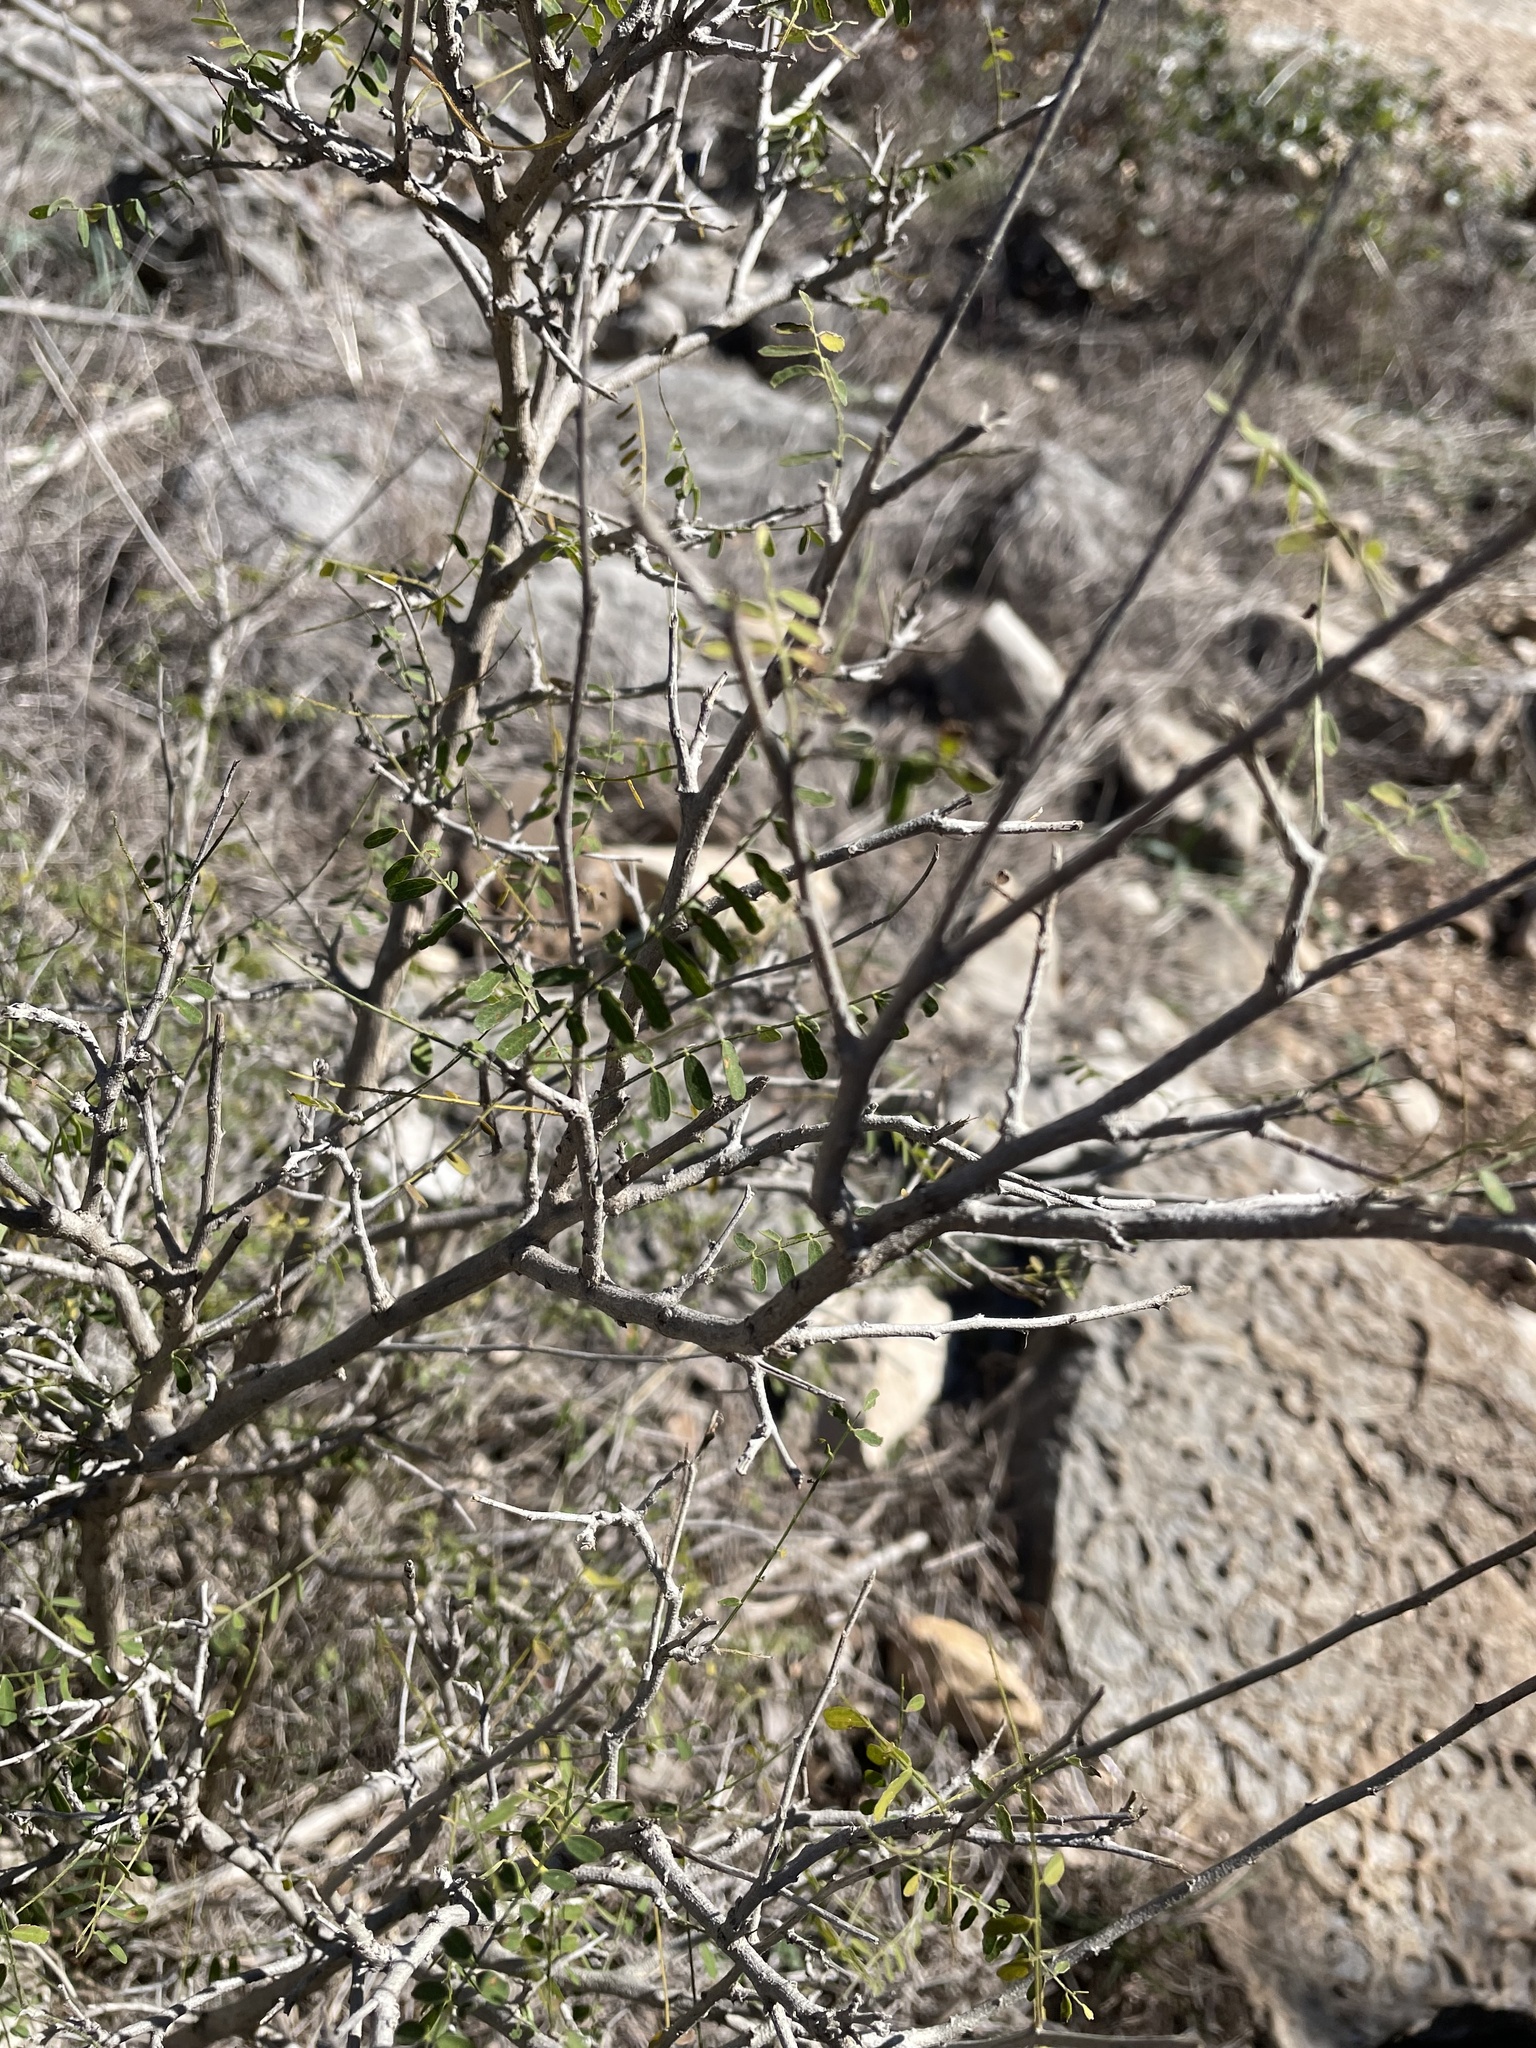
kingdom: Plantae
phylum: Tracheophyta
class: Magnoliopsida
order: Fabales
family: Fabaceae
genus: Eysenhardtia
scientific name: Eysenhardtia texana
